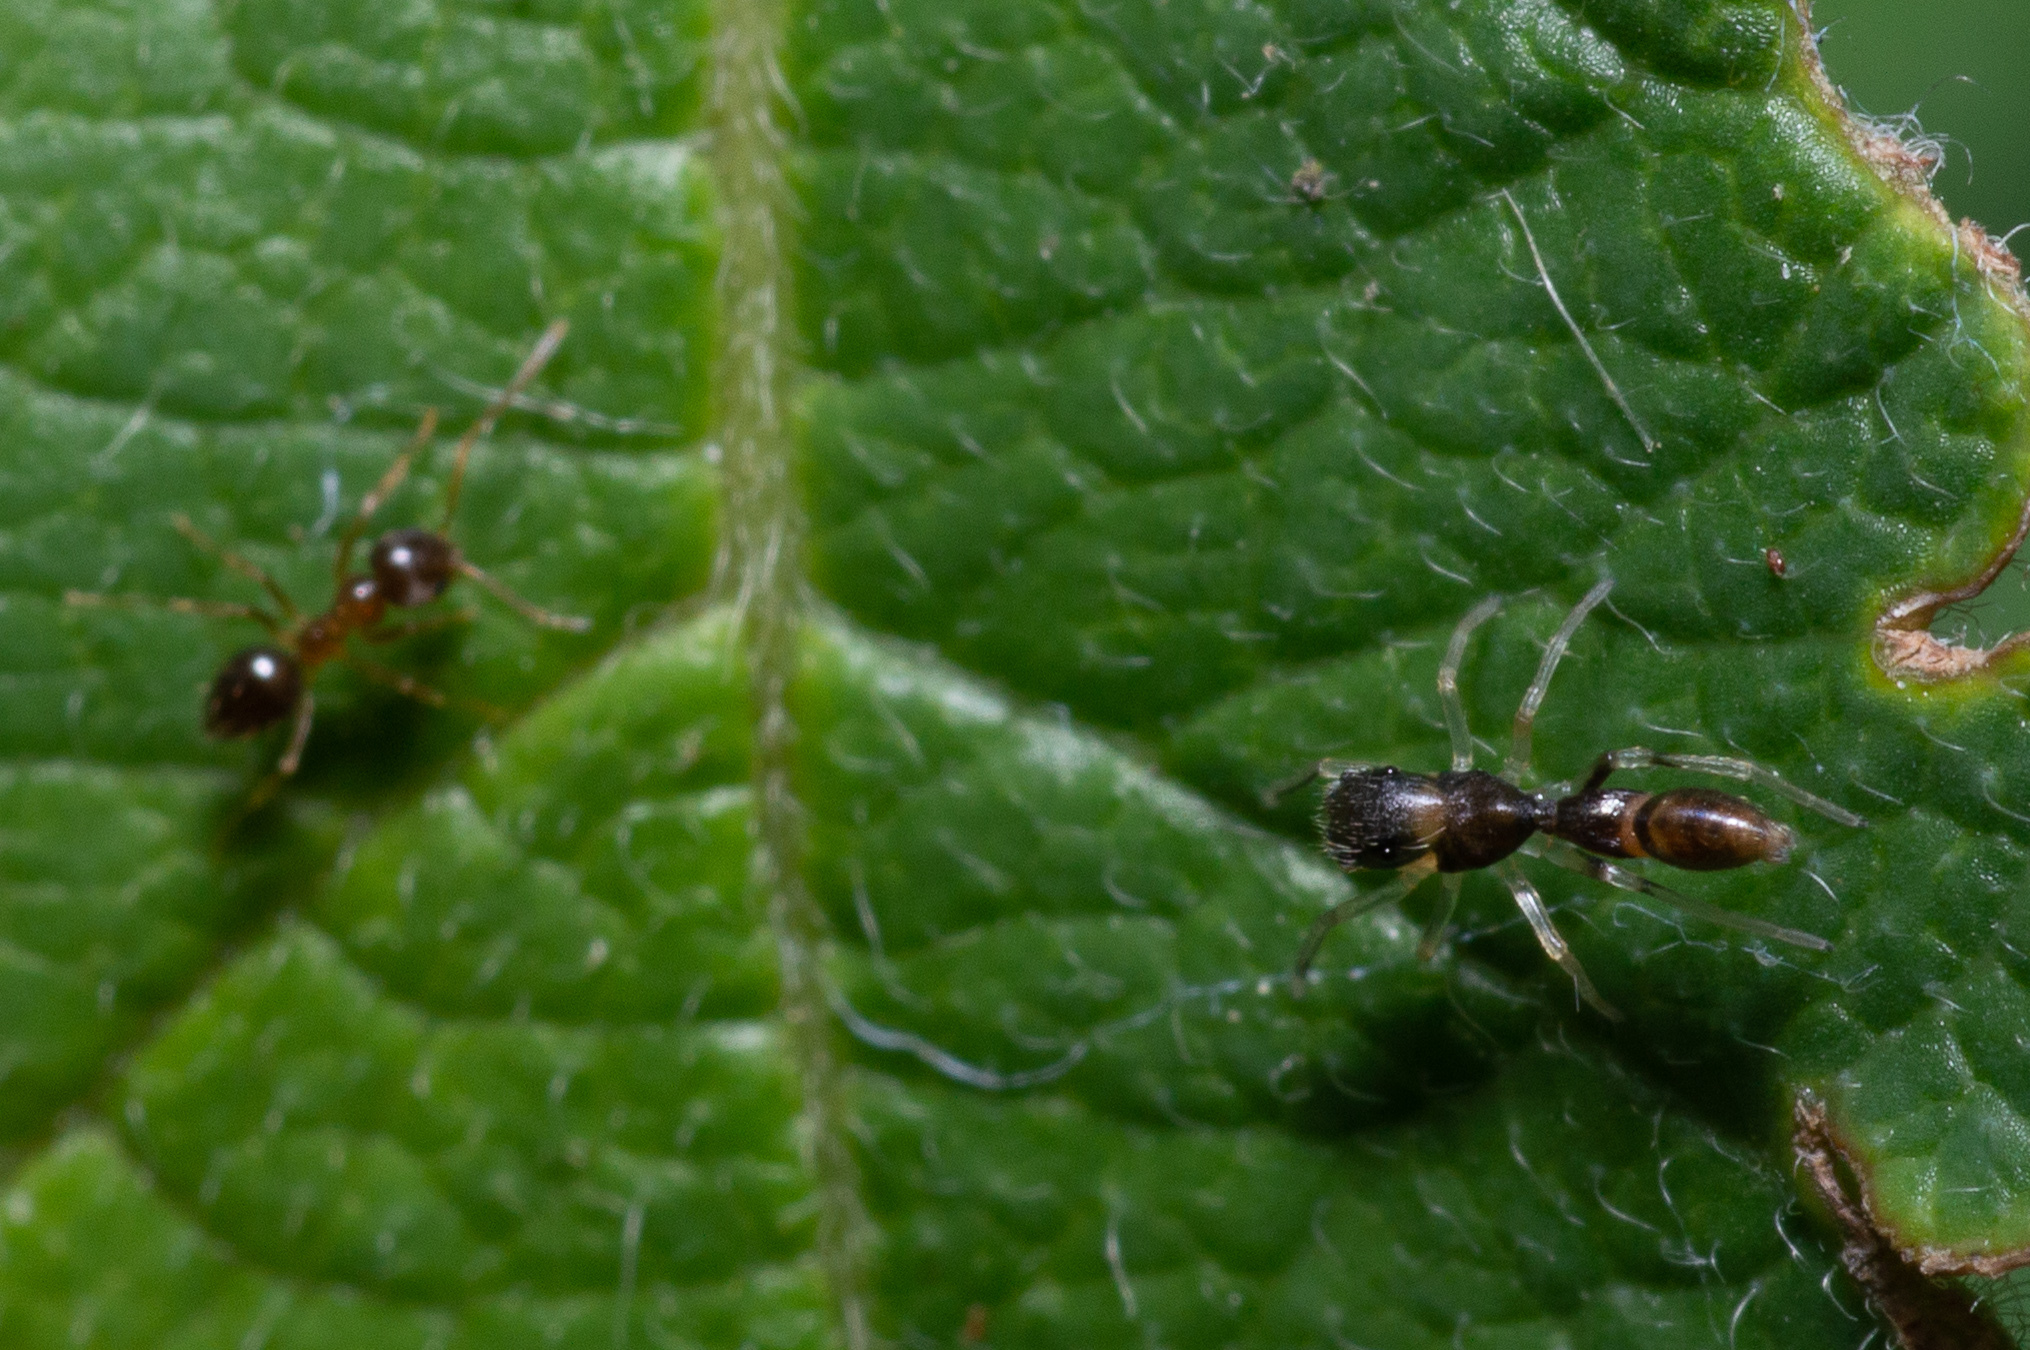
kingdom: Animalia
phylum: Arthropoda
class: Arachnida
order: Araneae
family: Salticidae
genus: Synemosyna
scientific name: Synemosyna formica
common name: Slender ant-mimic jumping spider
